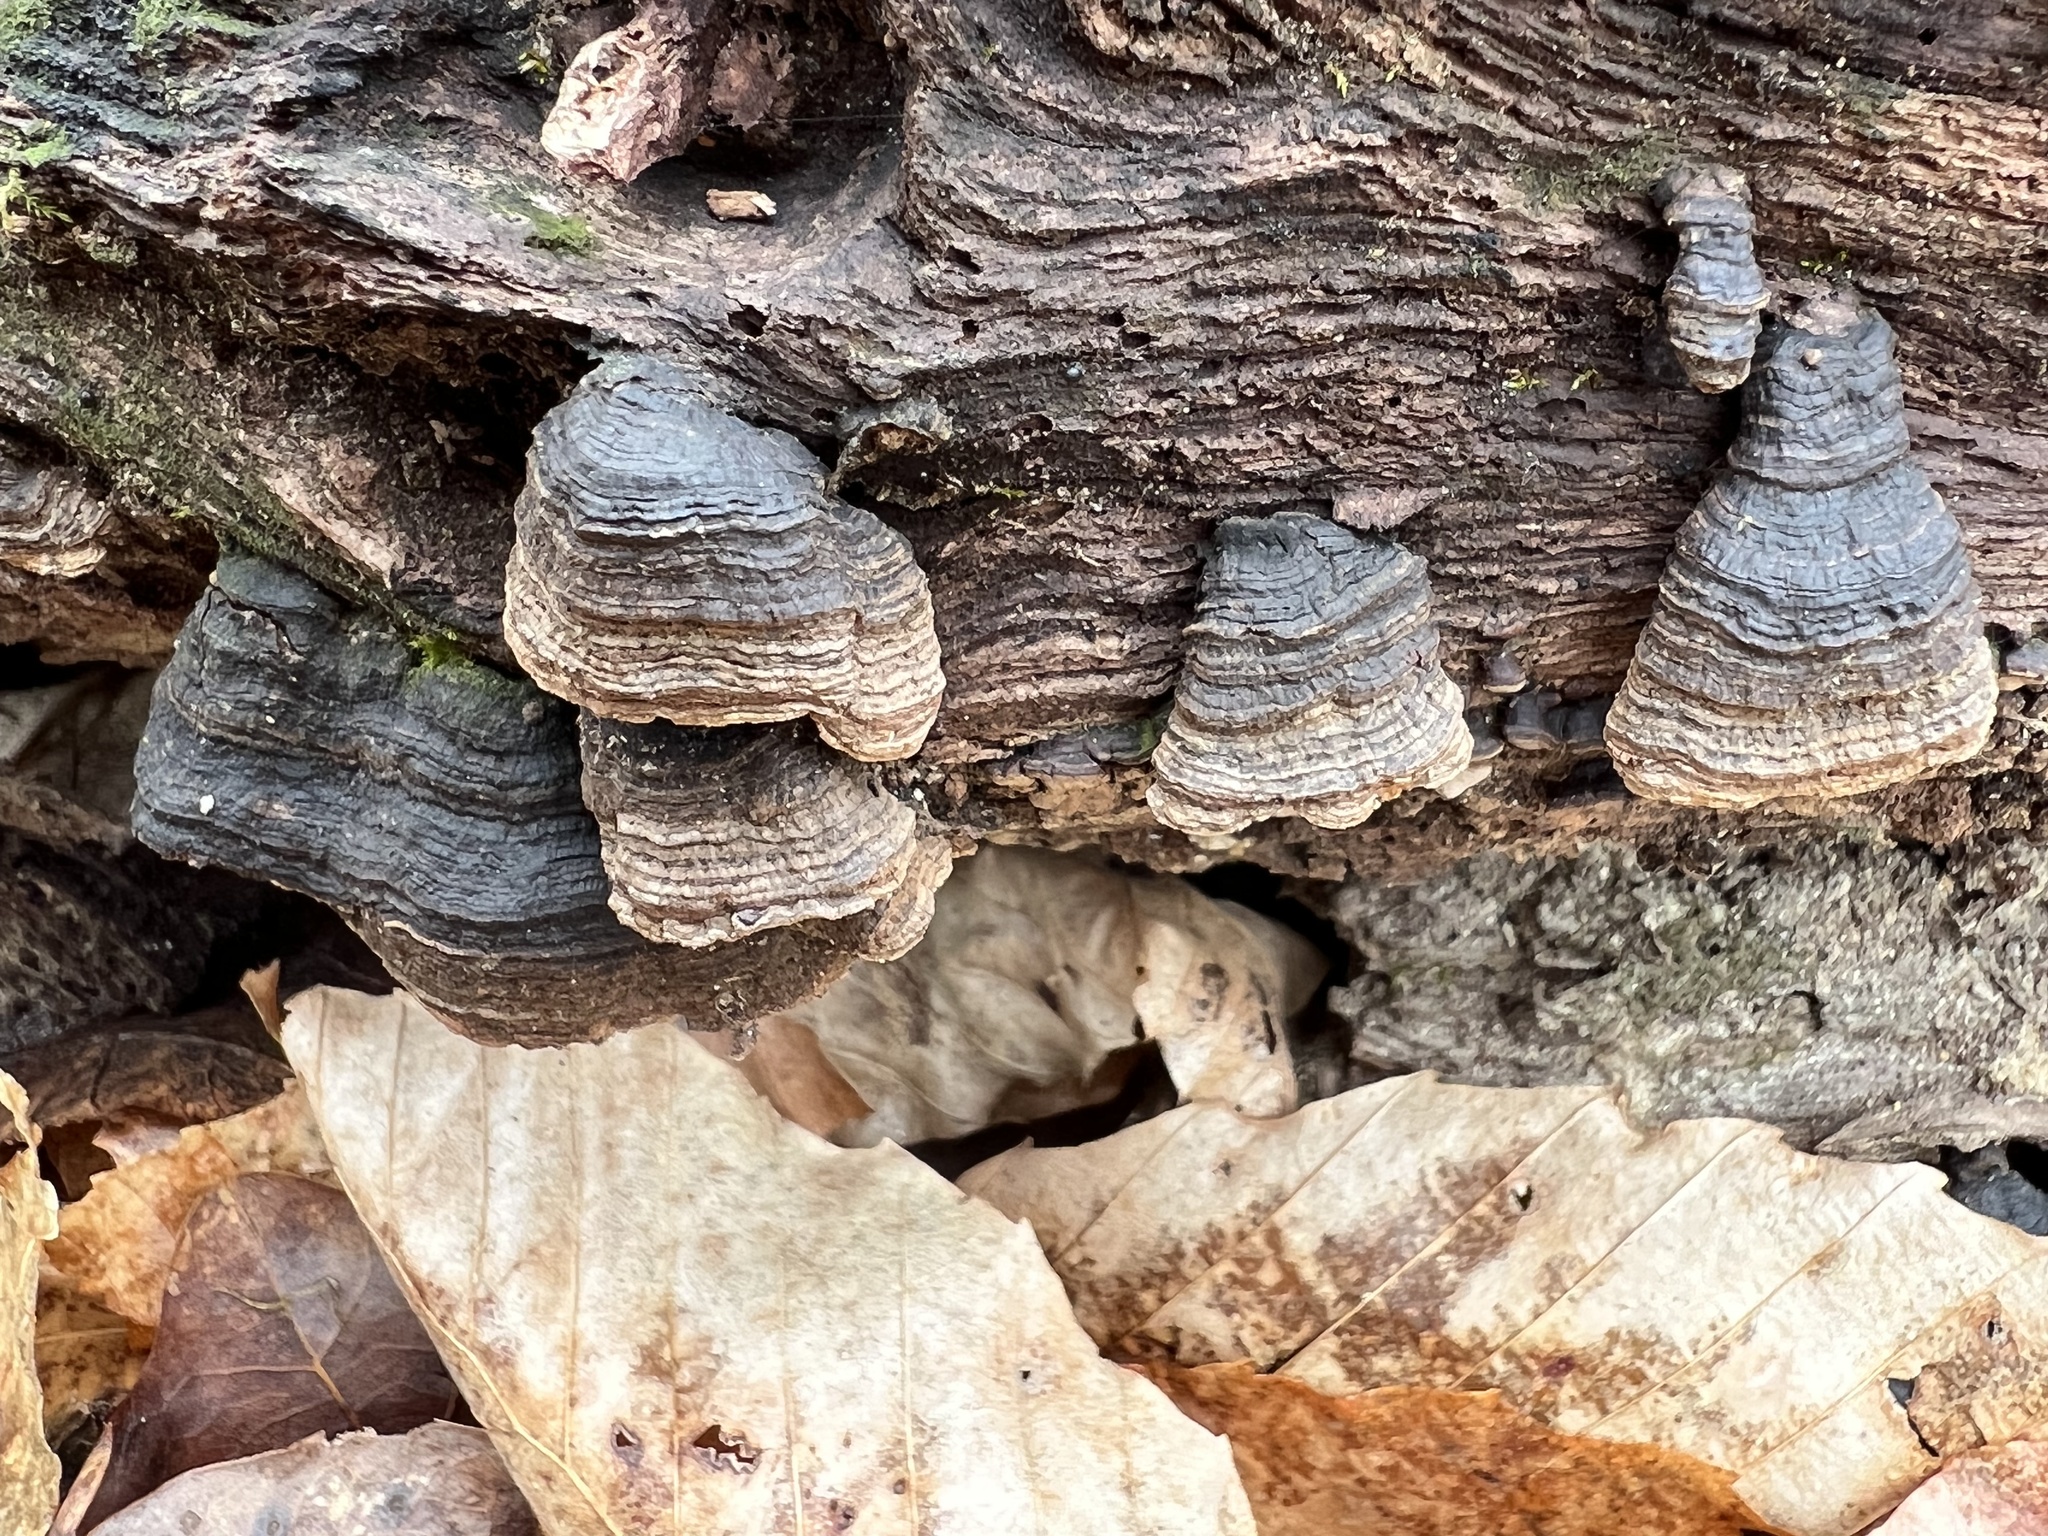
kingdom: Fungi
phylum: Basidiomycota
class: Agaricomycetes
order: Hymenochaetales
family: Hymenochaetaceae
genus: Hymenochaete
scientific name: Hymenochaete rubiginosa
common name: Oak curtain crust
